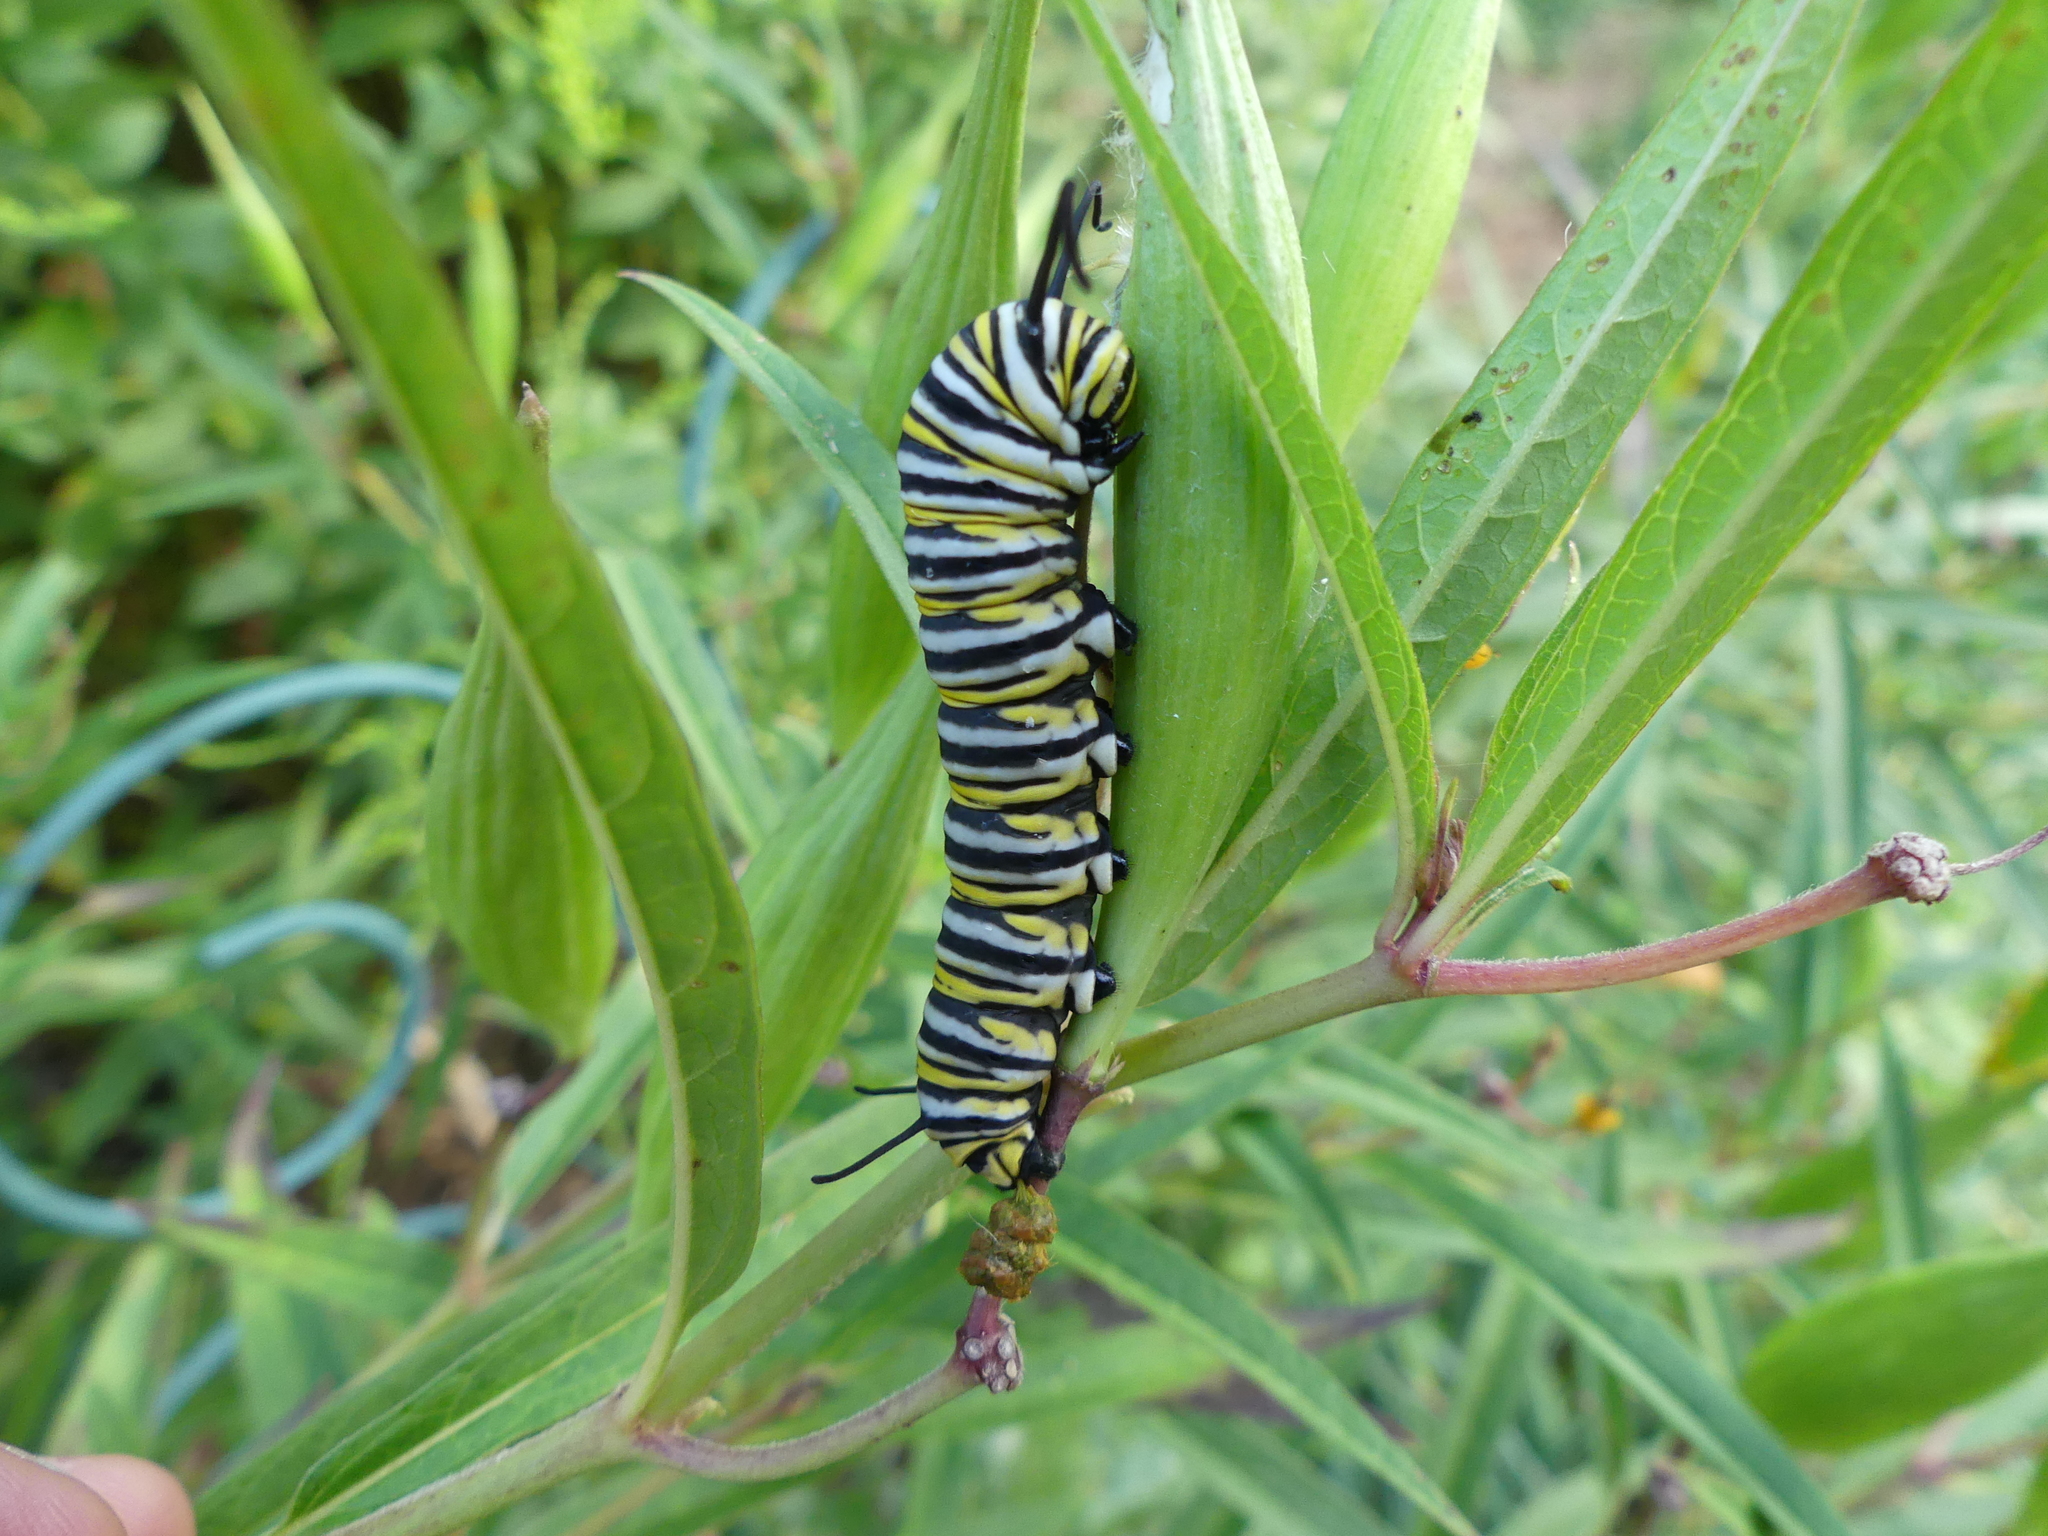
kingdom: Animalia
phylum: Arthropoda
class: Insecta
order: Lepidoptera
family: Nymphalidae
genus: Danaus
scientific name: Danaus plexippus
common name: Monarch
